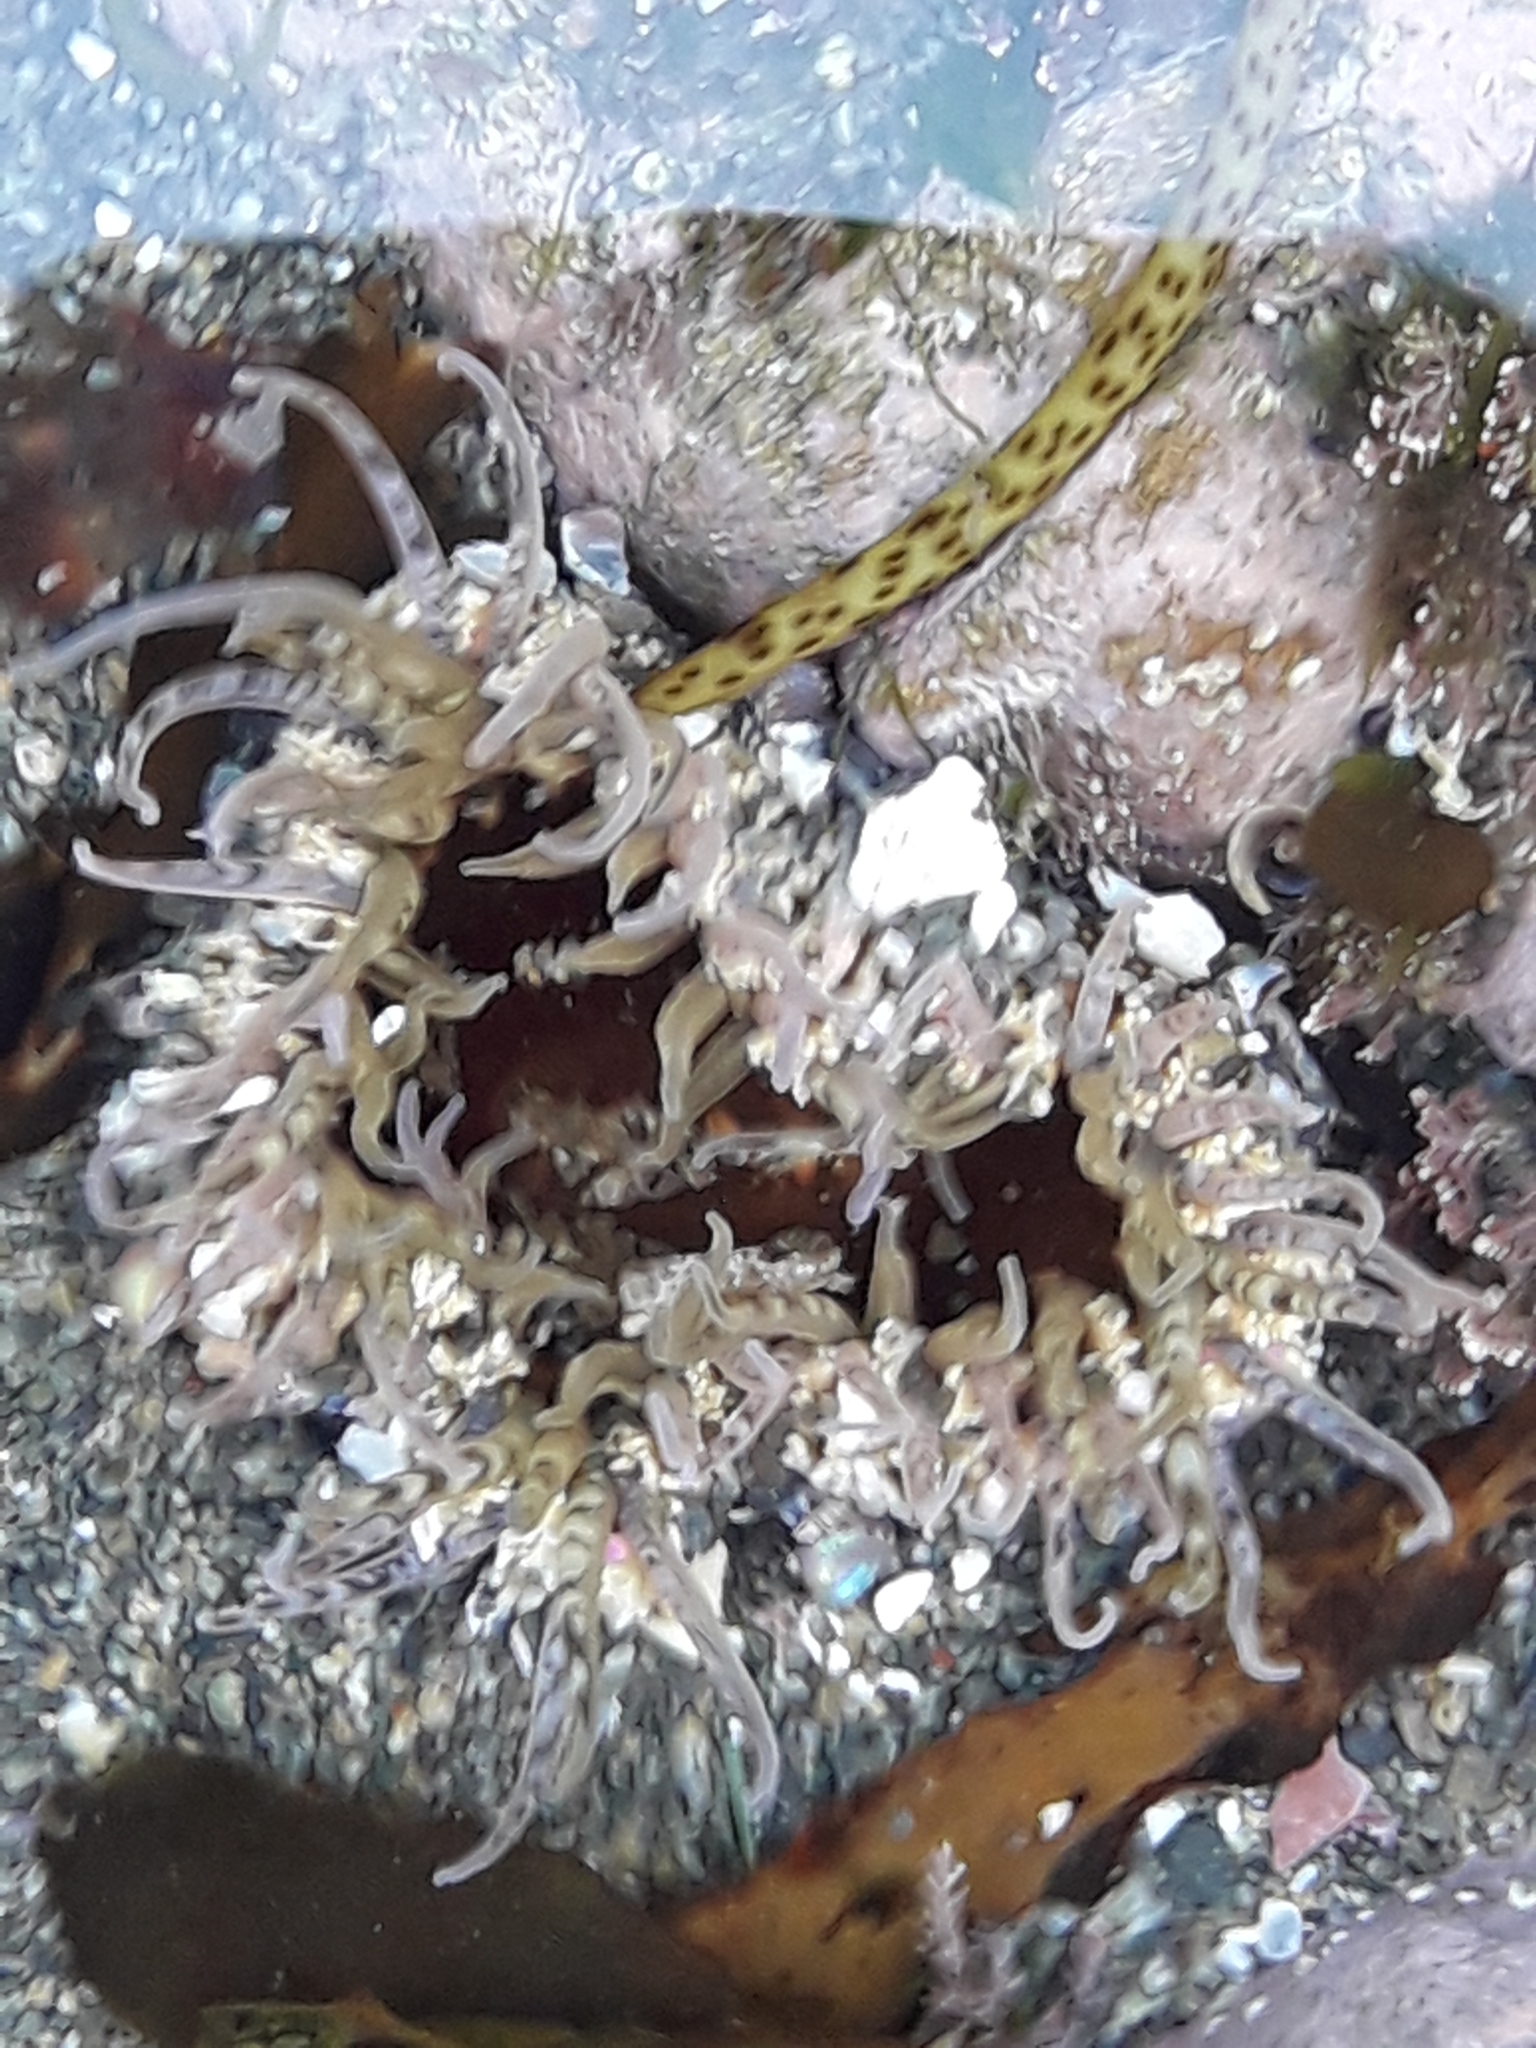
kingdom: Animalia
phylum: Cnidaria
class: Anthozoa
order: Actiniaria
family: Actiniidae
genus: Oulactis
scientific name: Oulactis muscosa
